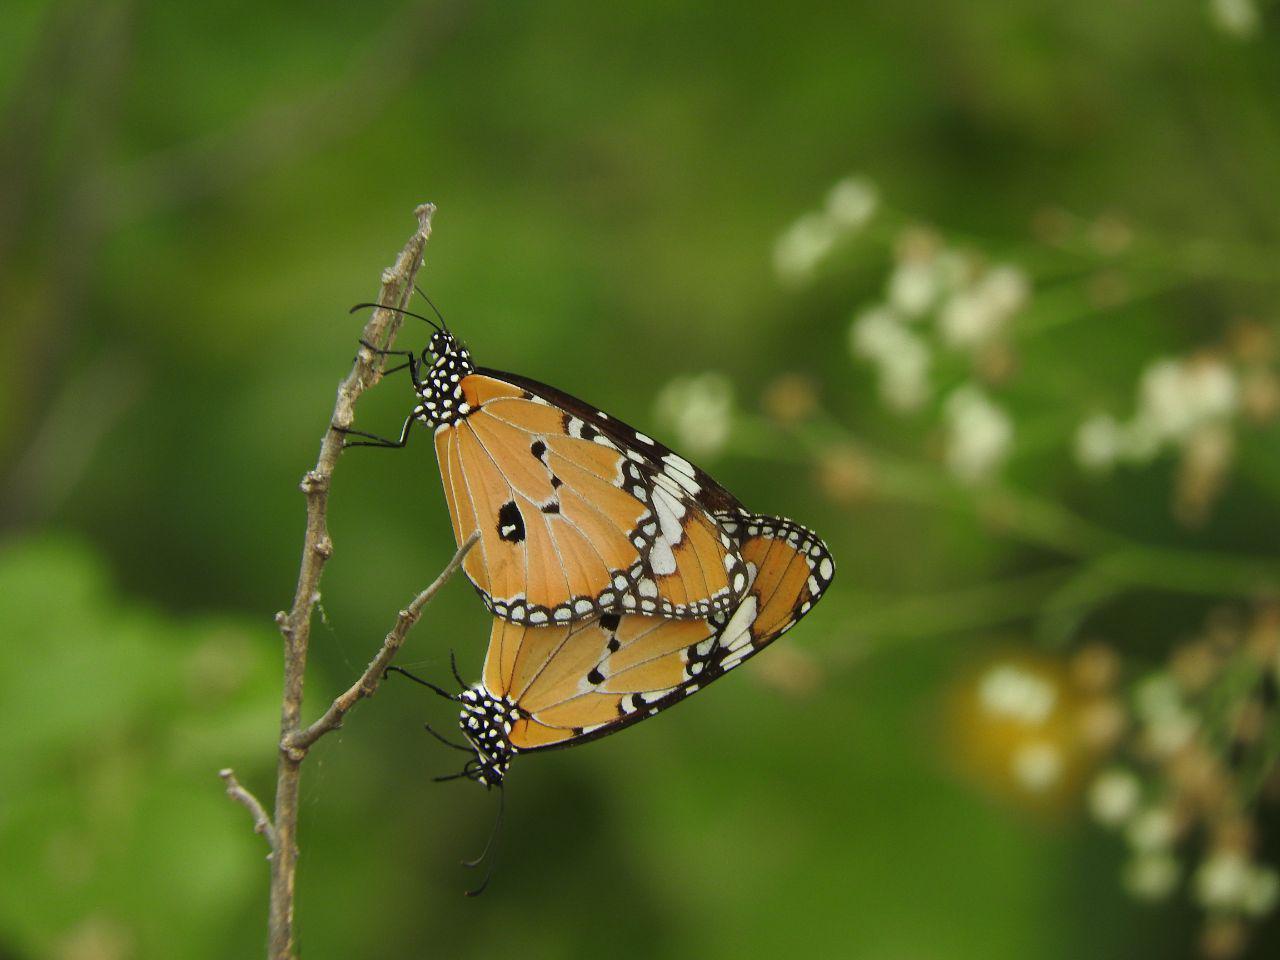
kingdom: Animalia
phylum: Arthropoda
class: Insecta
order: Lepidoptera
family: Nymphalidae
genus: Danaus
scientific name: Danaus chrysippus
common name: Plain tiger
